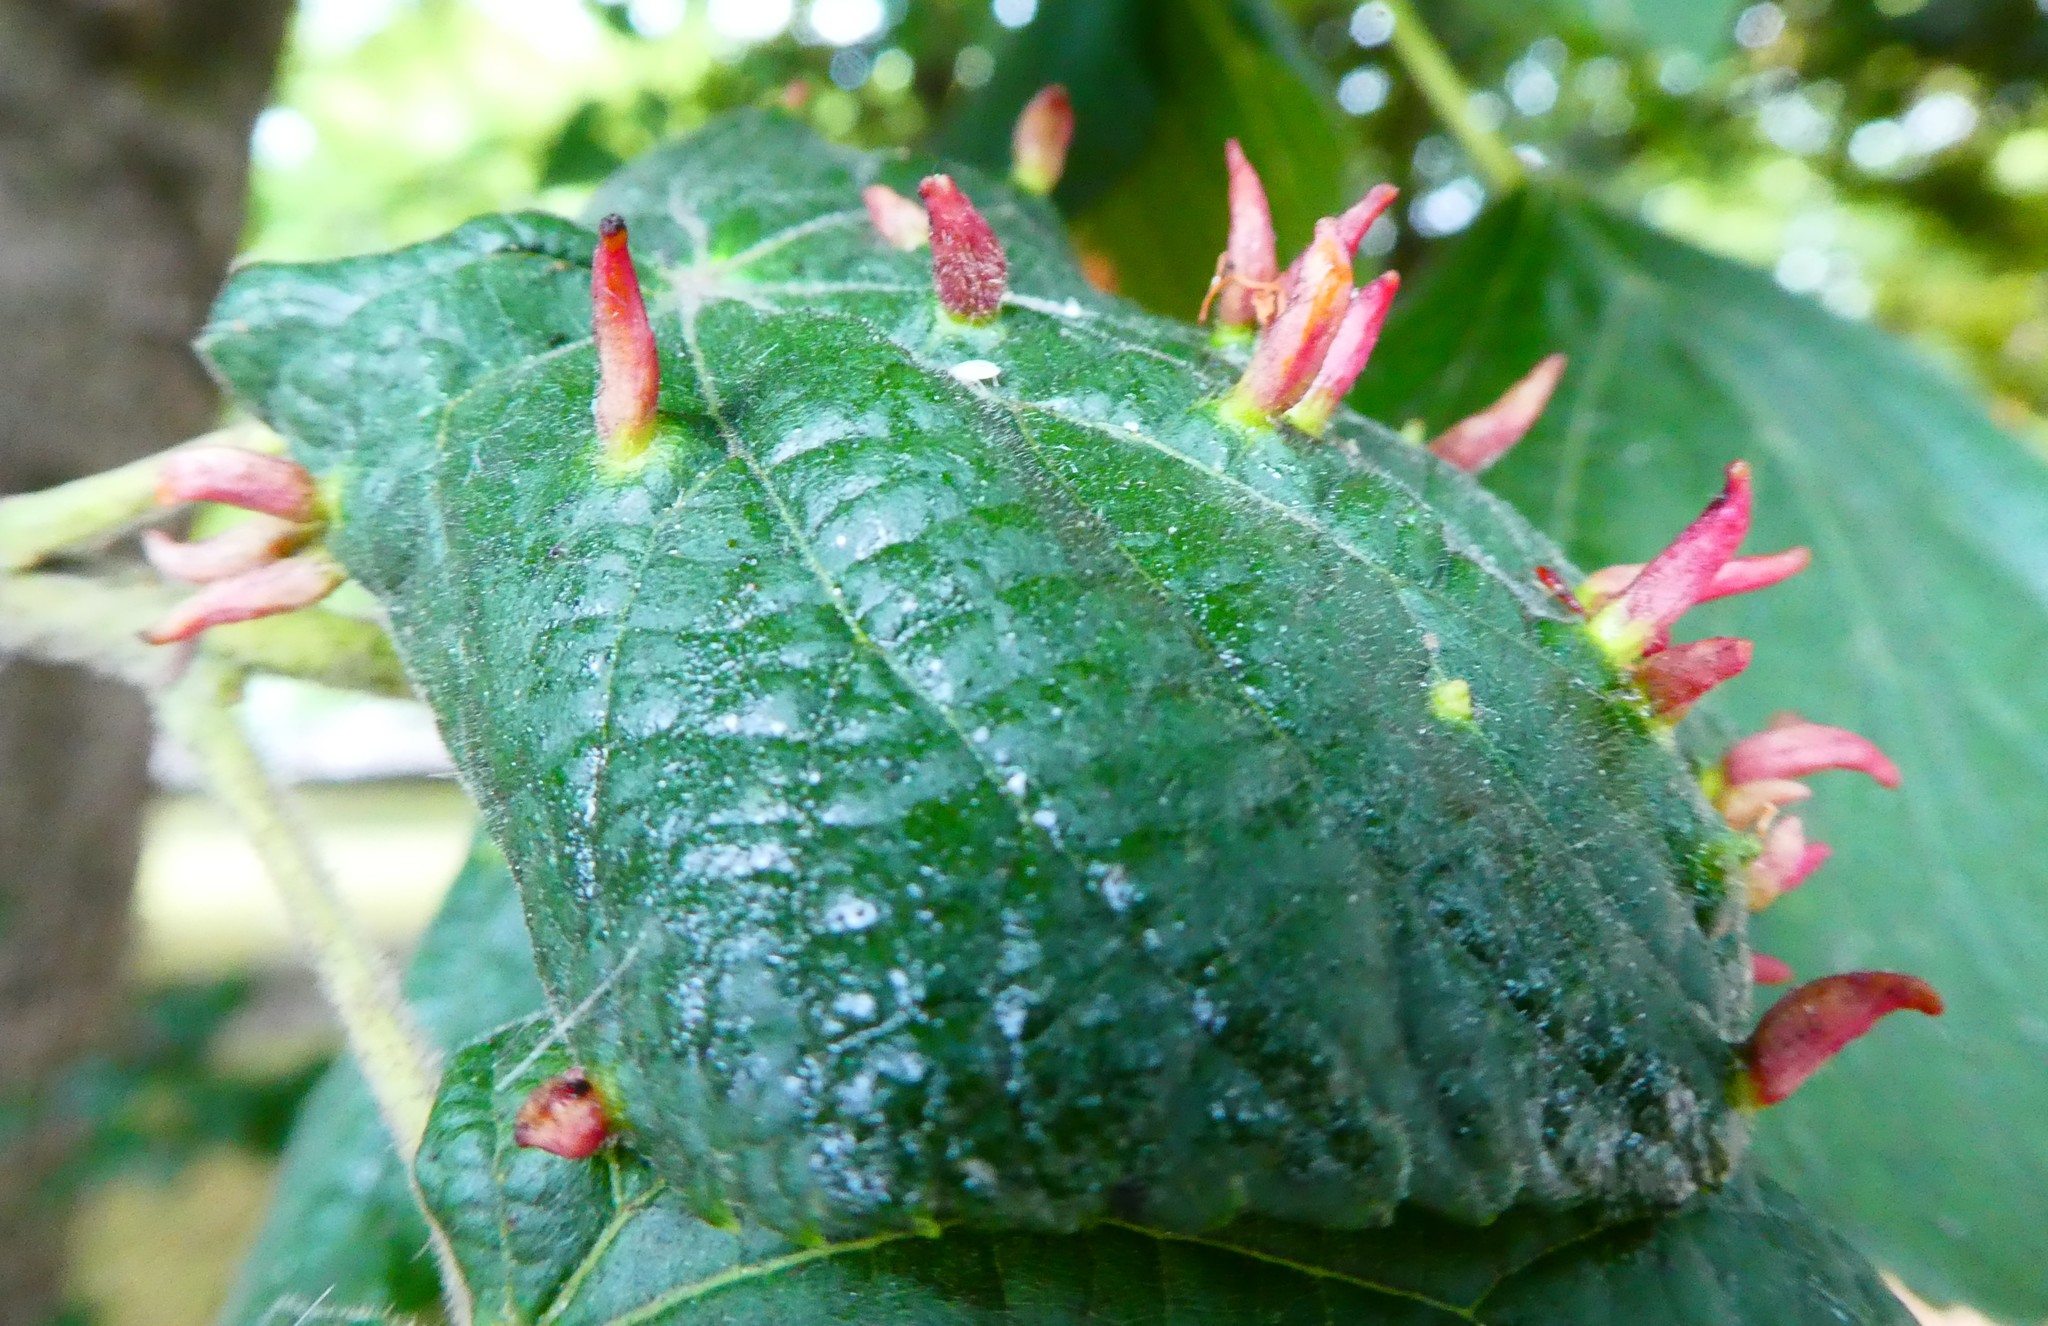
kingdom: Animalia
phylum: Arthropoda
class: Arachnida
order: Trombidiformes
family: Eriophyidae
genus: Eriophyes
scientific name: Eriophyes tiliae
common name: Red nail gall mite
